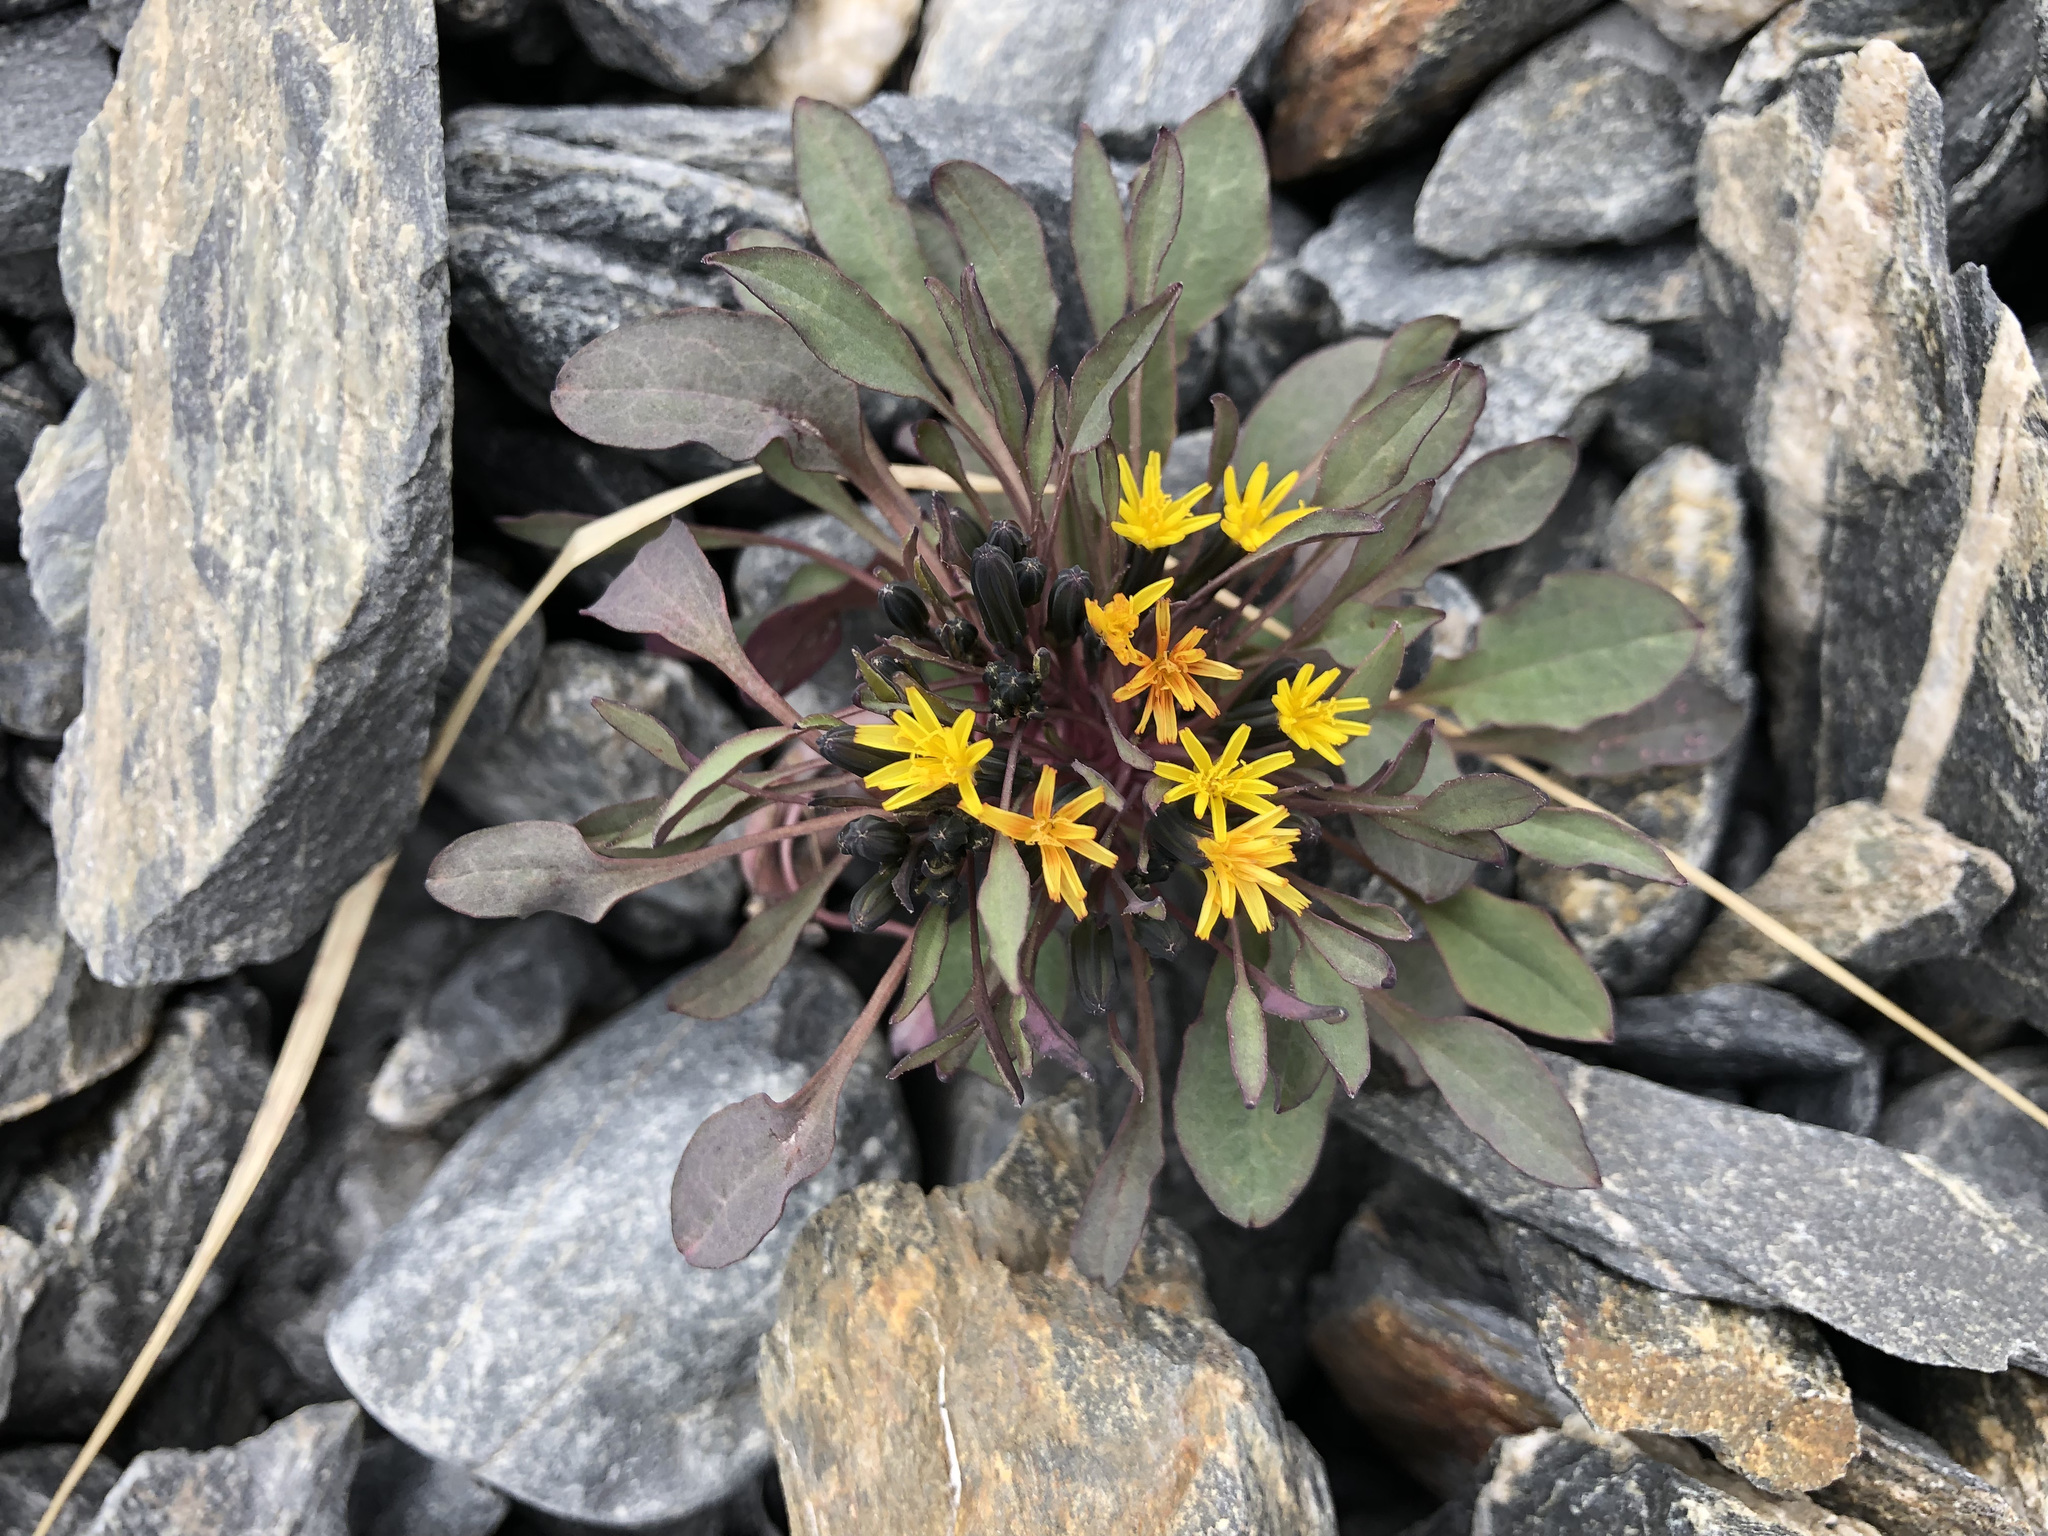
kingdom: Plantae
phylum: Tracheophyta
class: Magnoliopsida
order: Asterales
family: Asteraceae
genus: Askellia
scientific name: Askellia pygmaea
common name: Dwarf alpine hawksbeard
